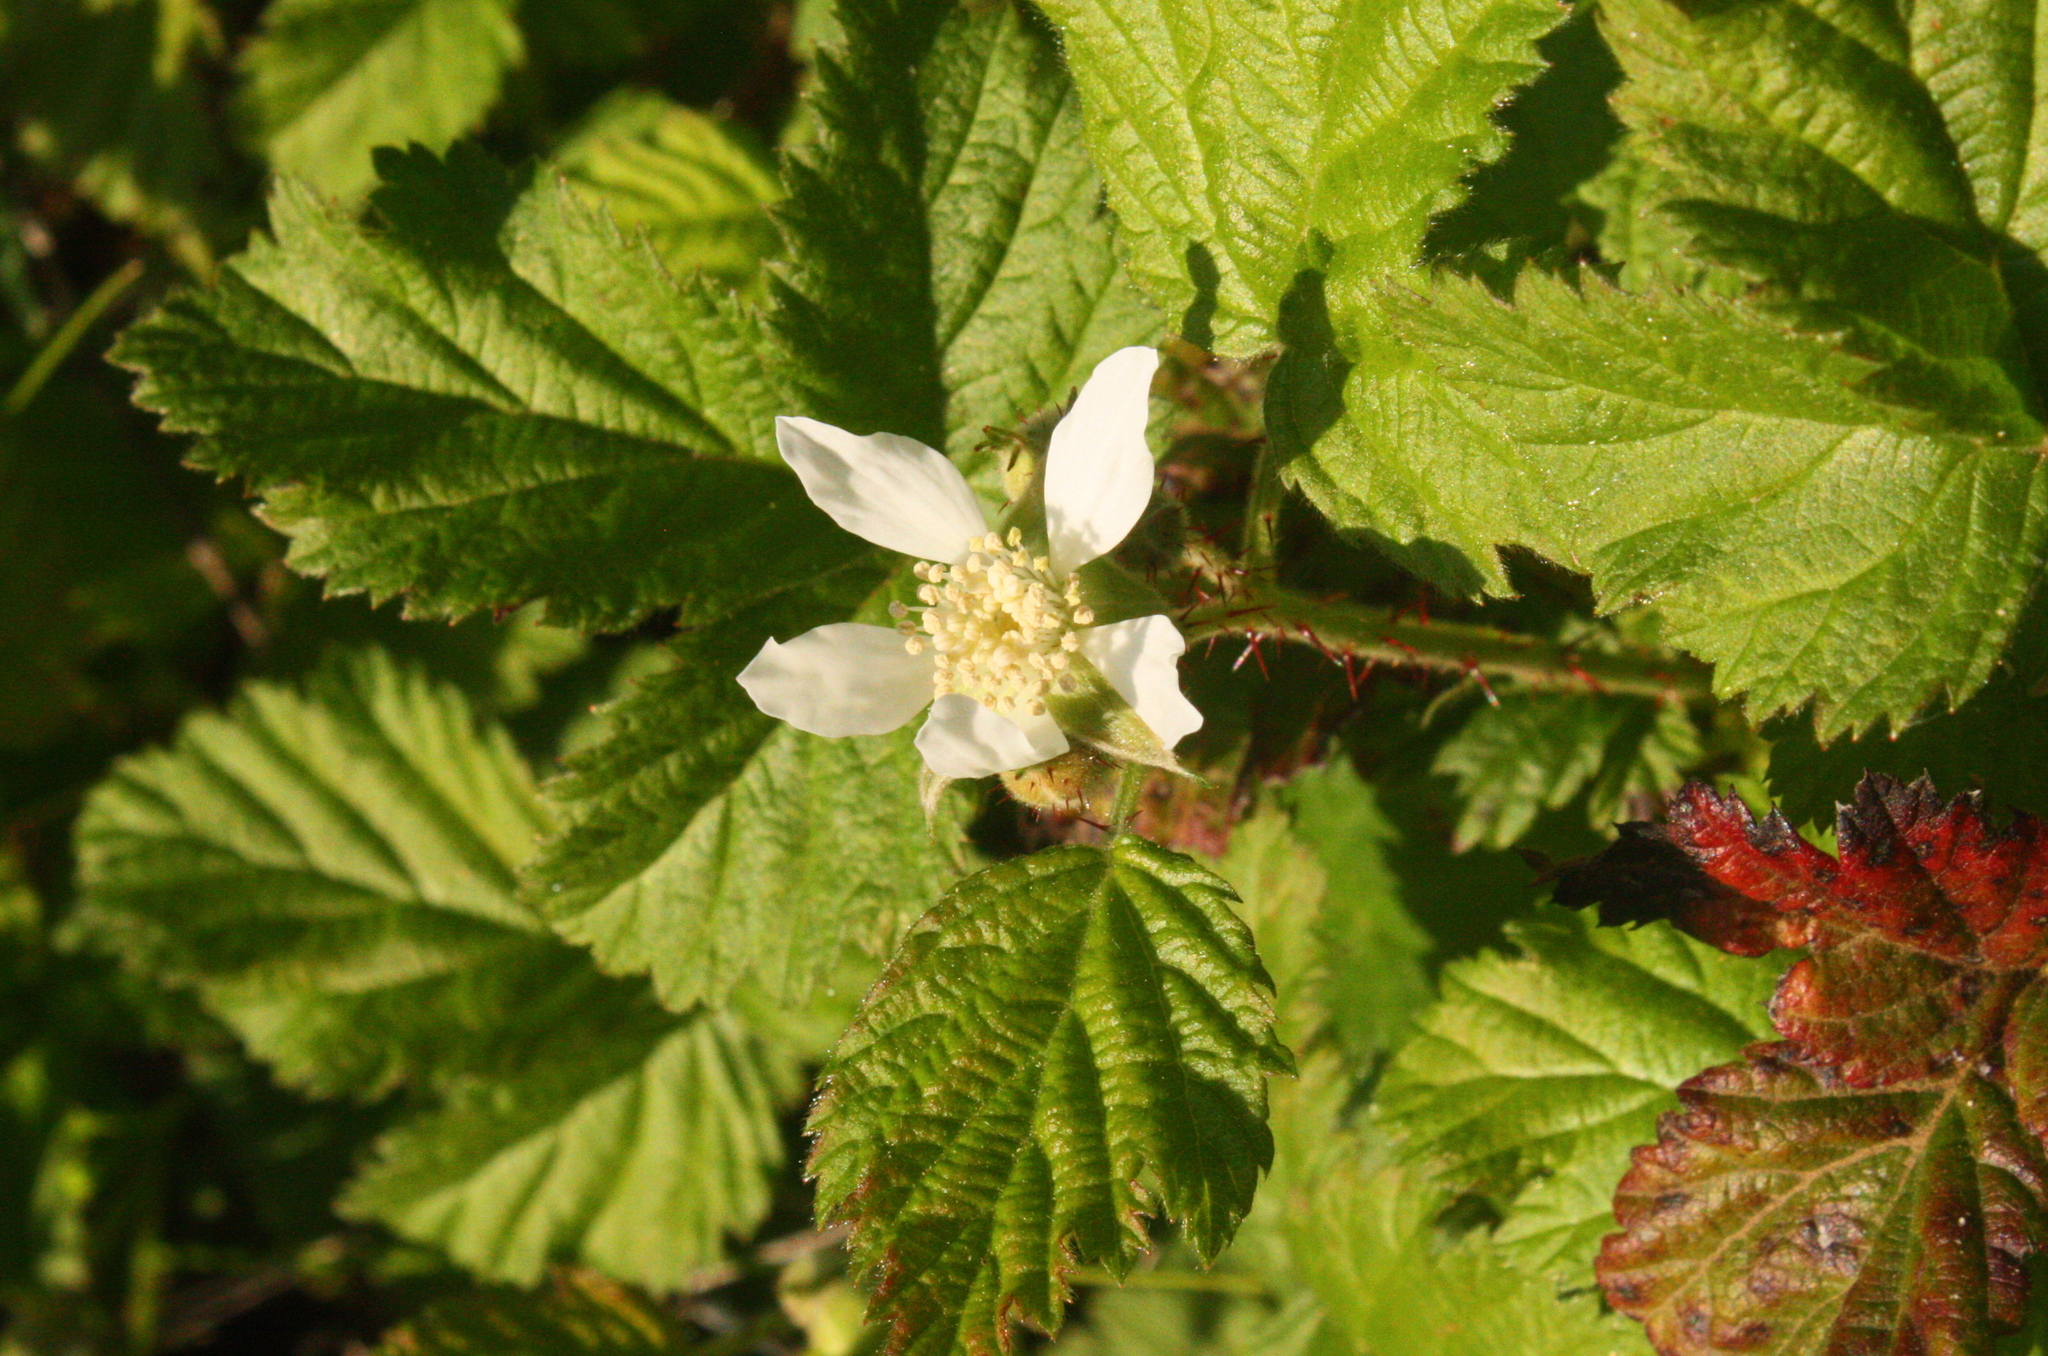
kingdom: Plantae
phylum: Tracheophyta
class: Magnoliopsida
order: Rosales
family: Rosaceae
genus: Rubus
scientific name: Rubus ursinus
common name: Pacific blackberry
